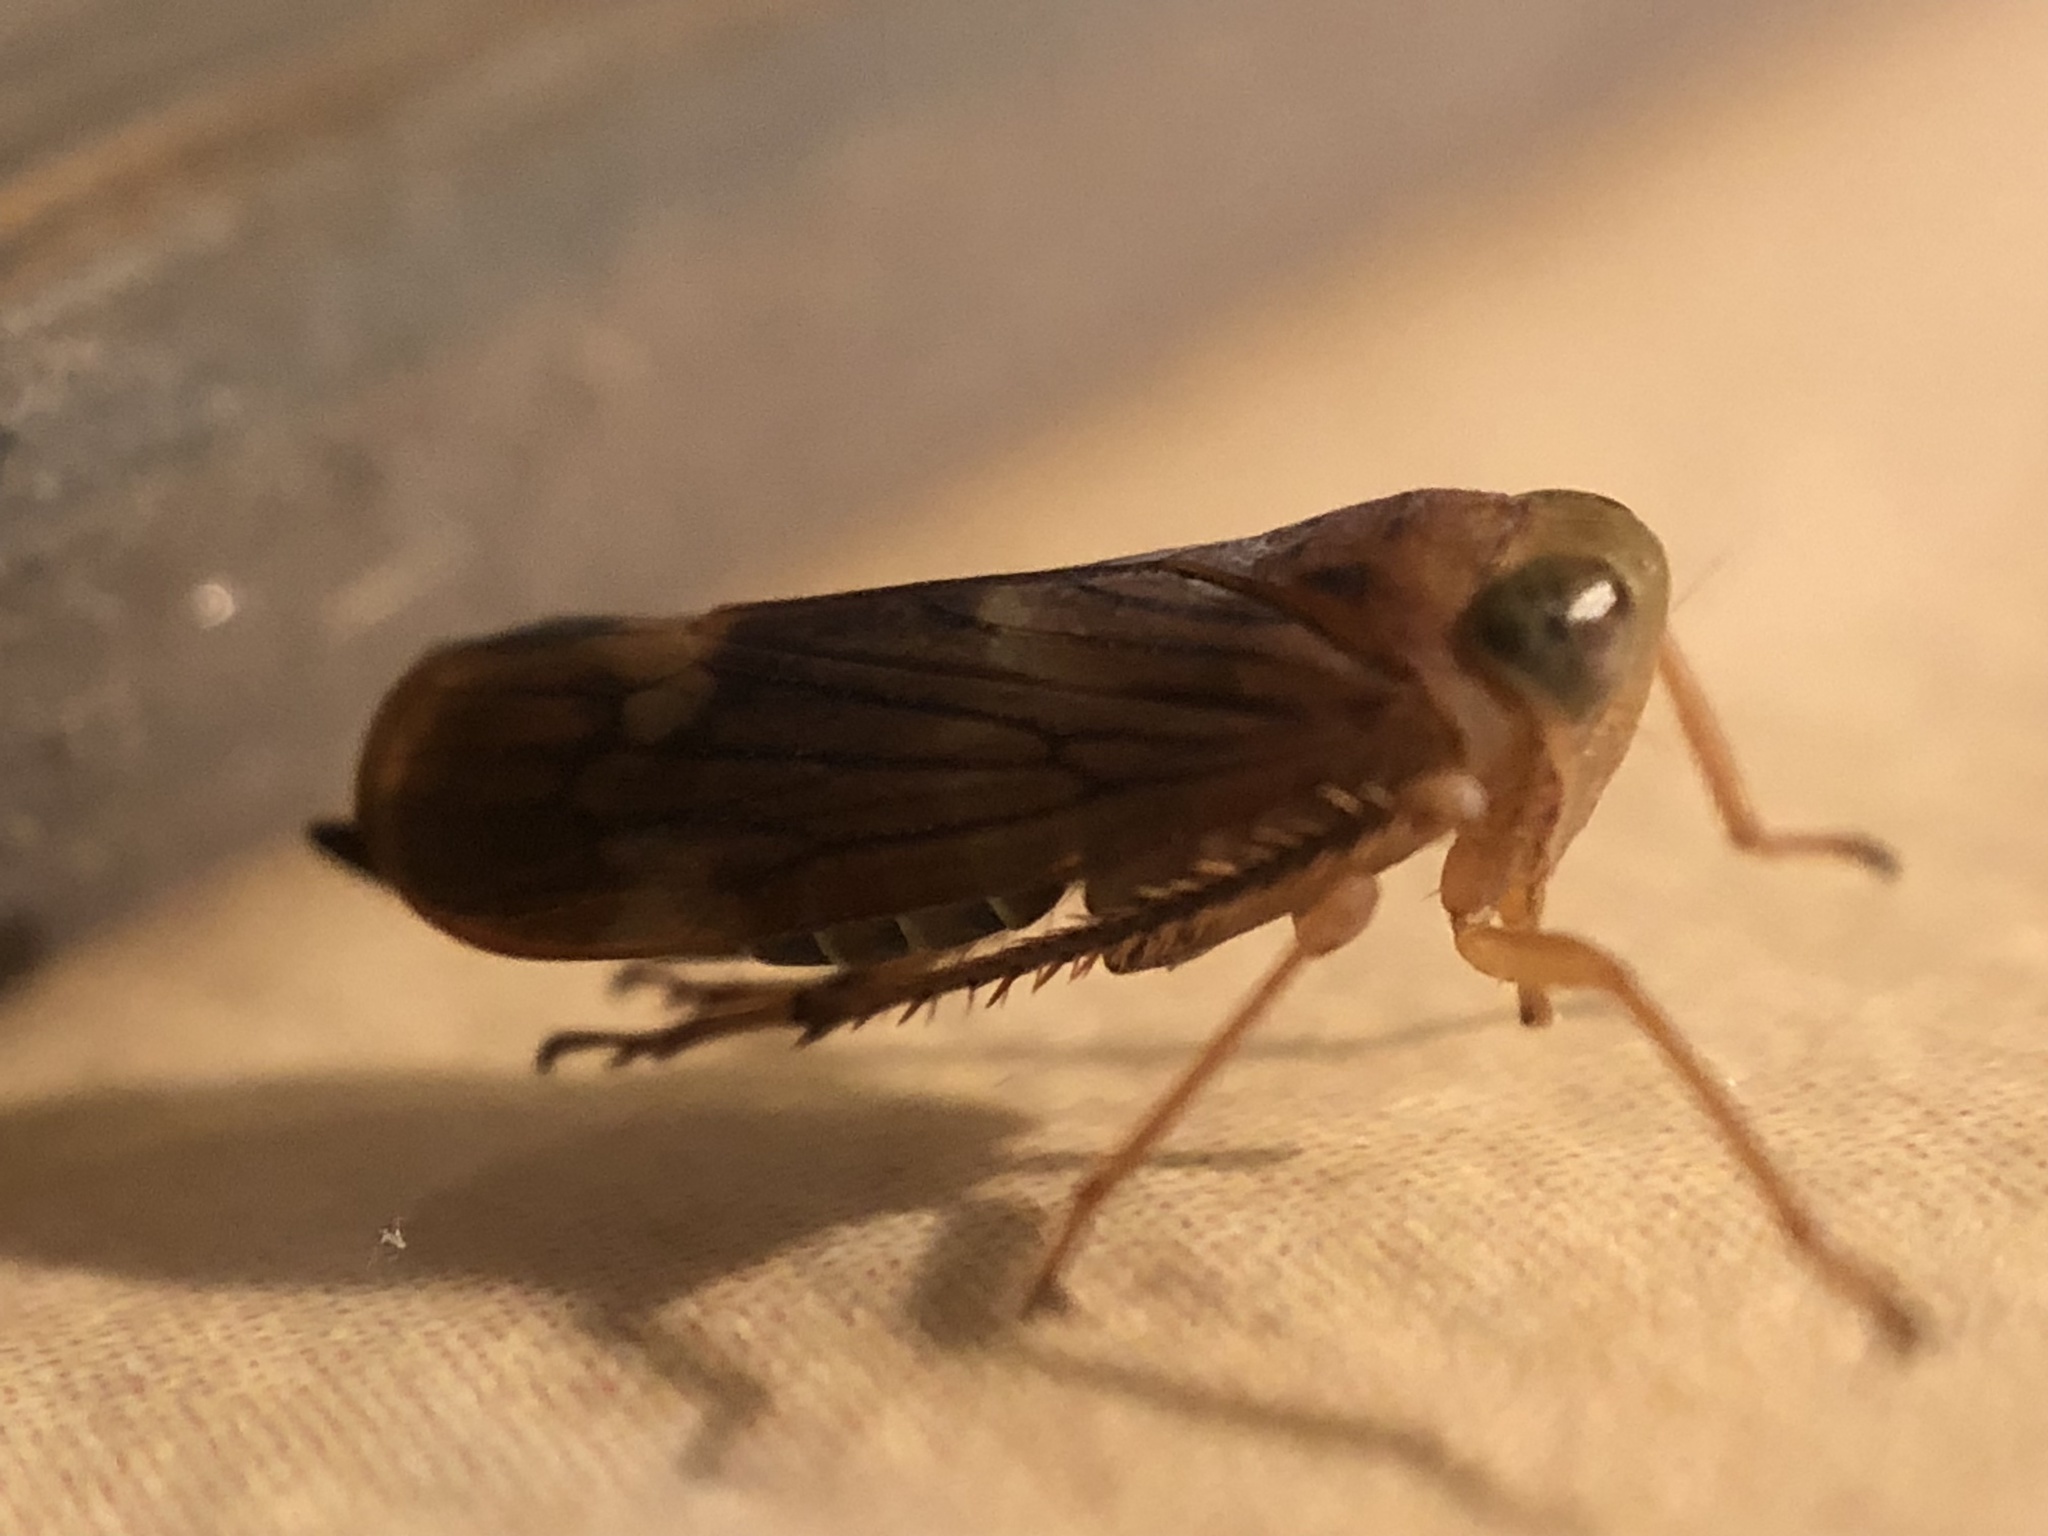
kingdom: Animalia
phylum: Arthropoda
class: Insecta
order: Hemiptera
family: Cicadellidae
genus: Jikradia
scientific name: Jikradia olitoria
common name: Coppery leafhopper
